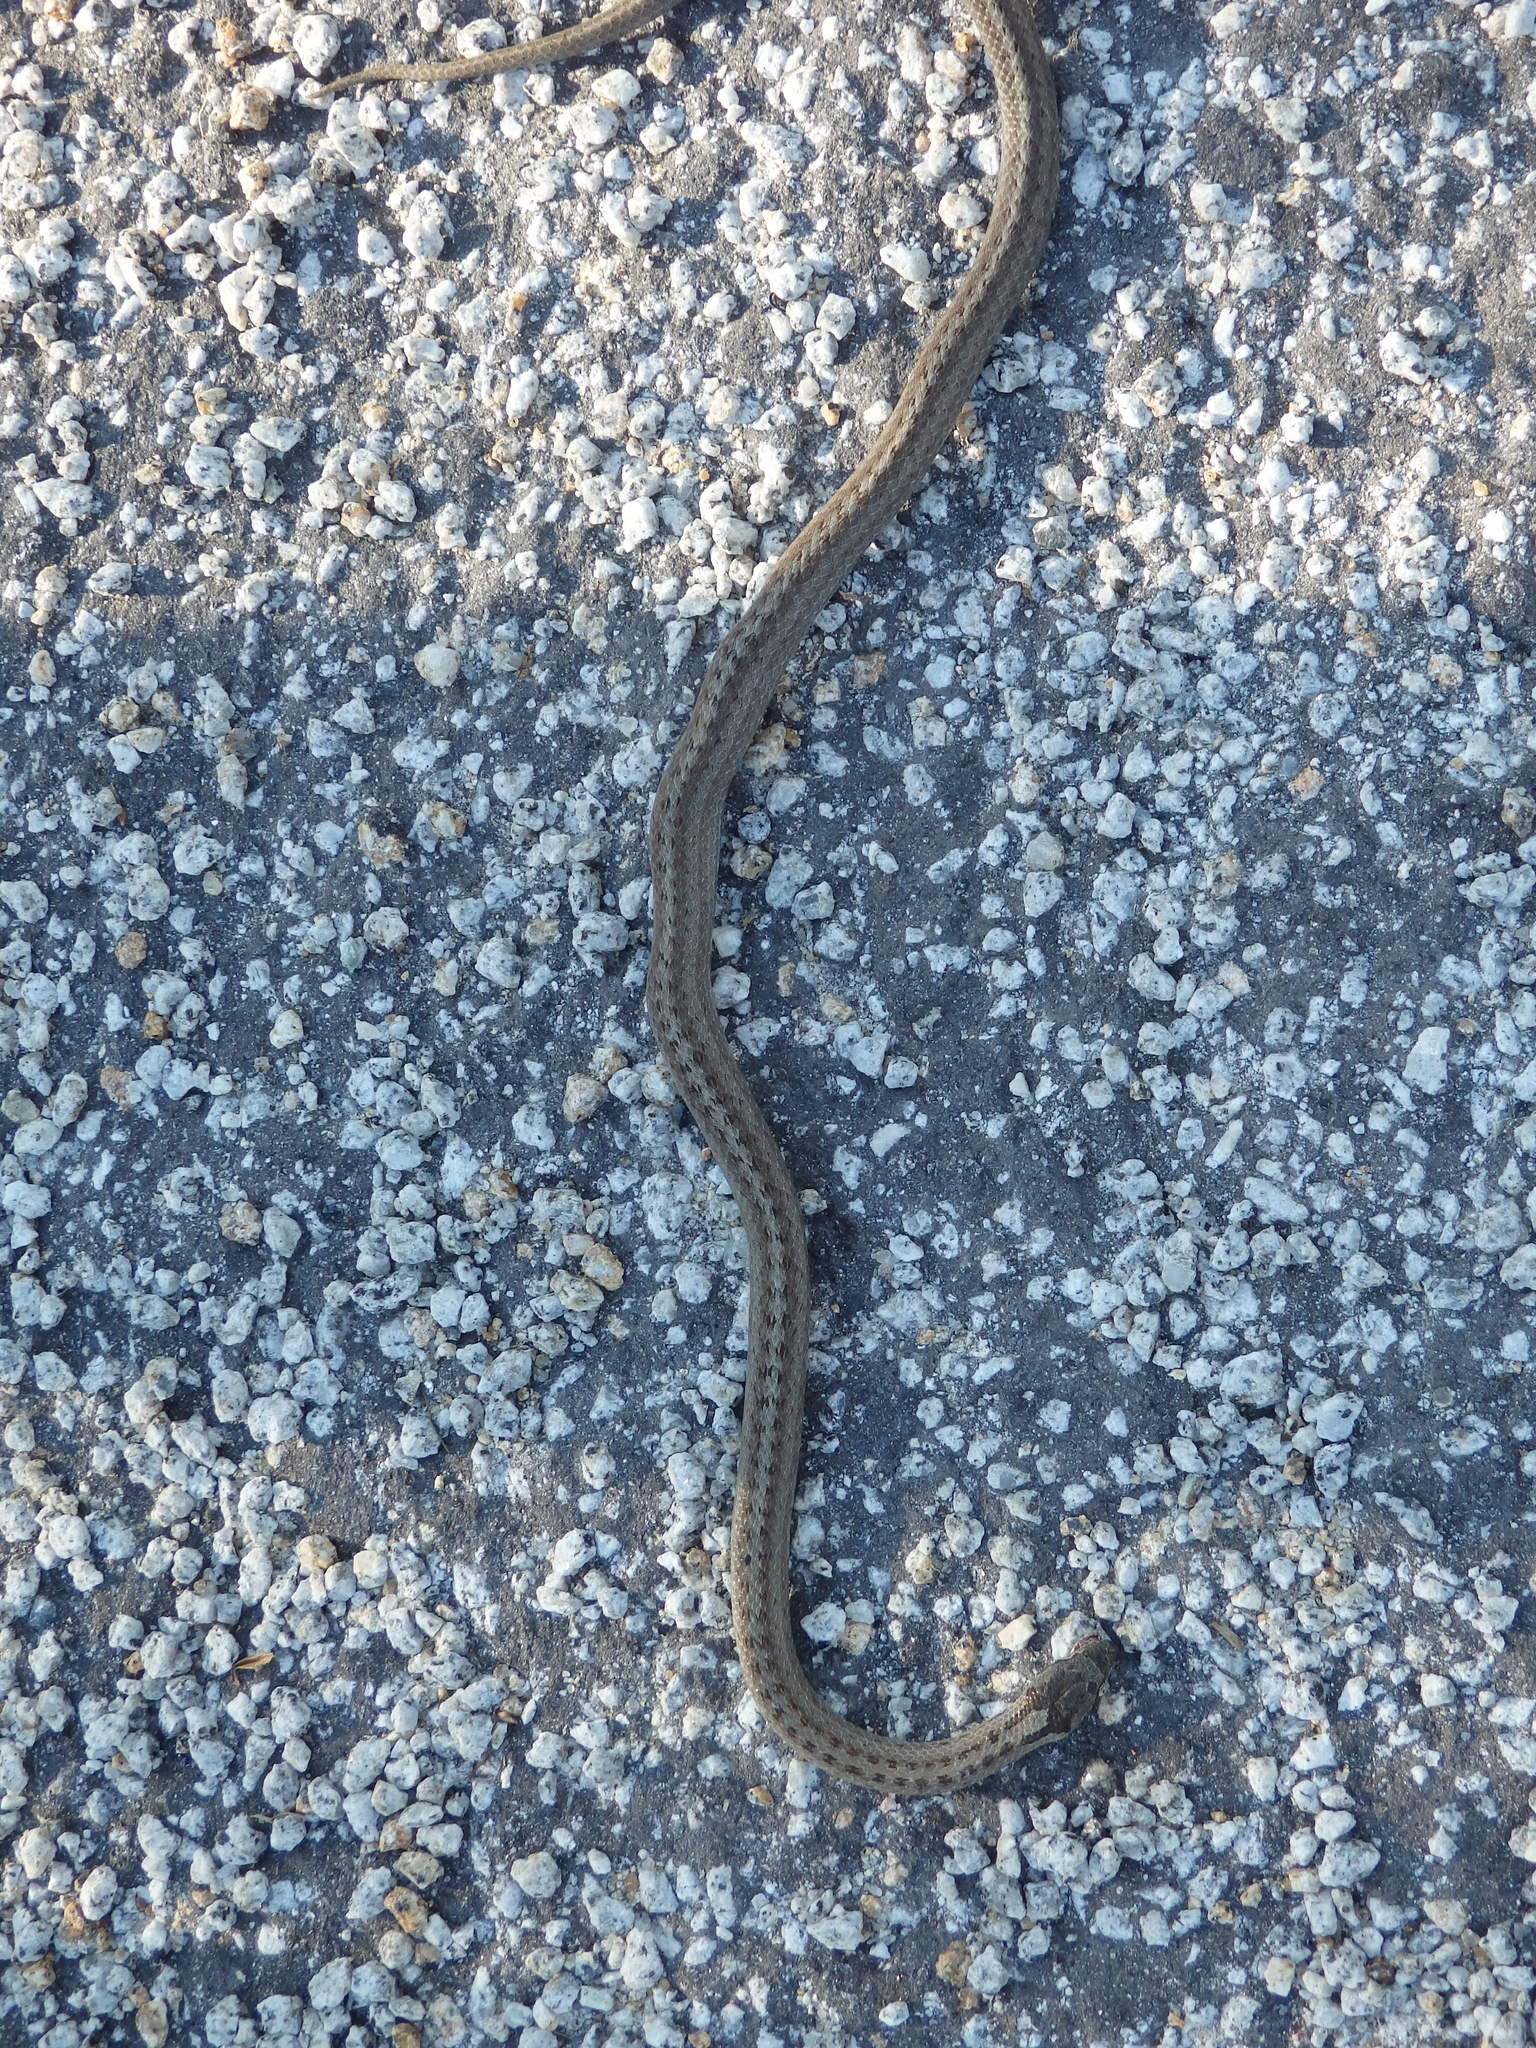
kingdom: Animalia
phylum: Chordata
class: Squamata
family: Colubridae
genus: Coronella
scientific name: Coronella austriaca
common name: Smooth snake
